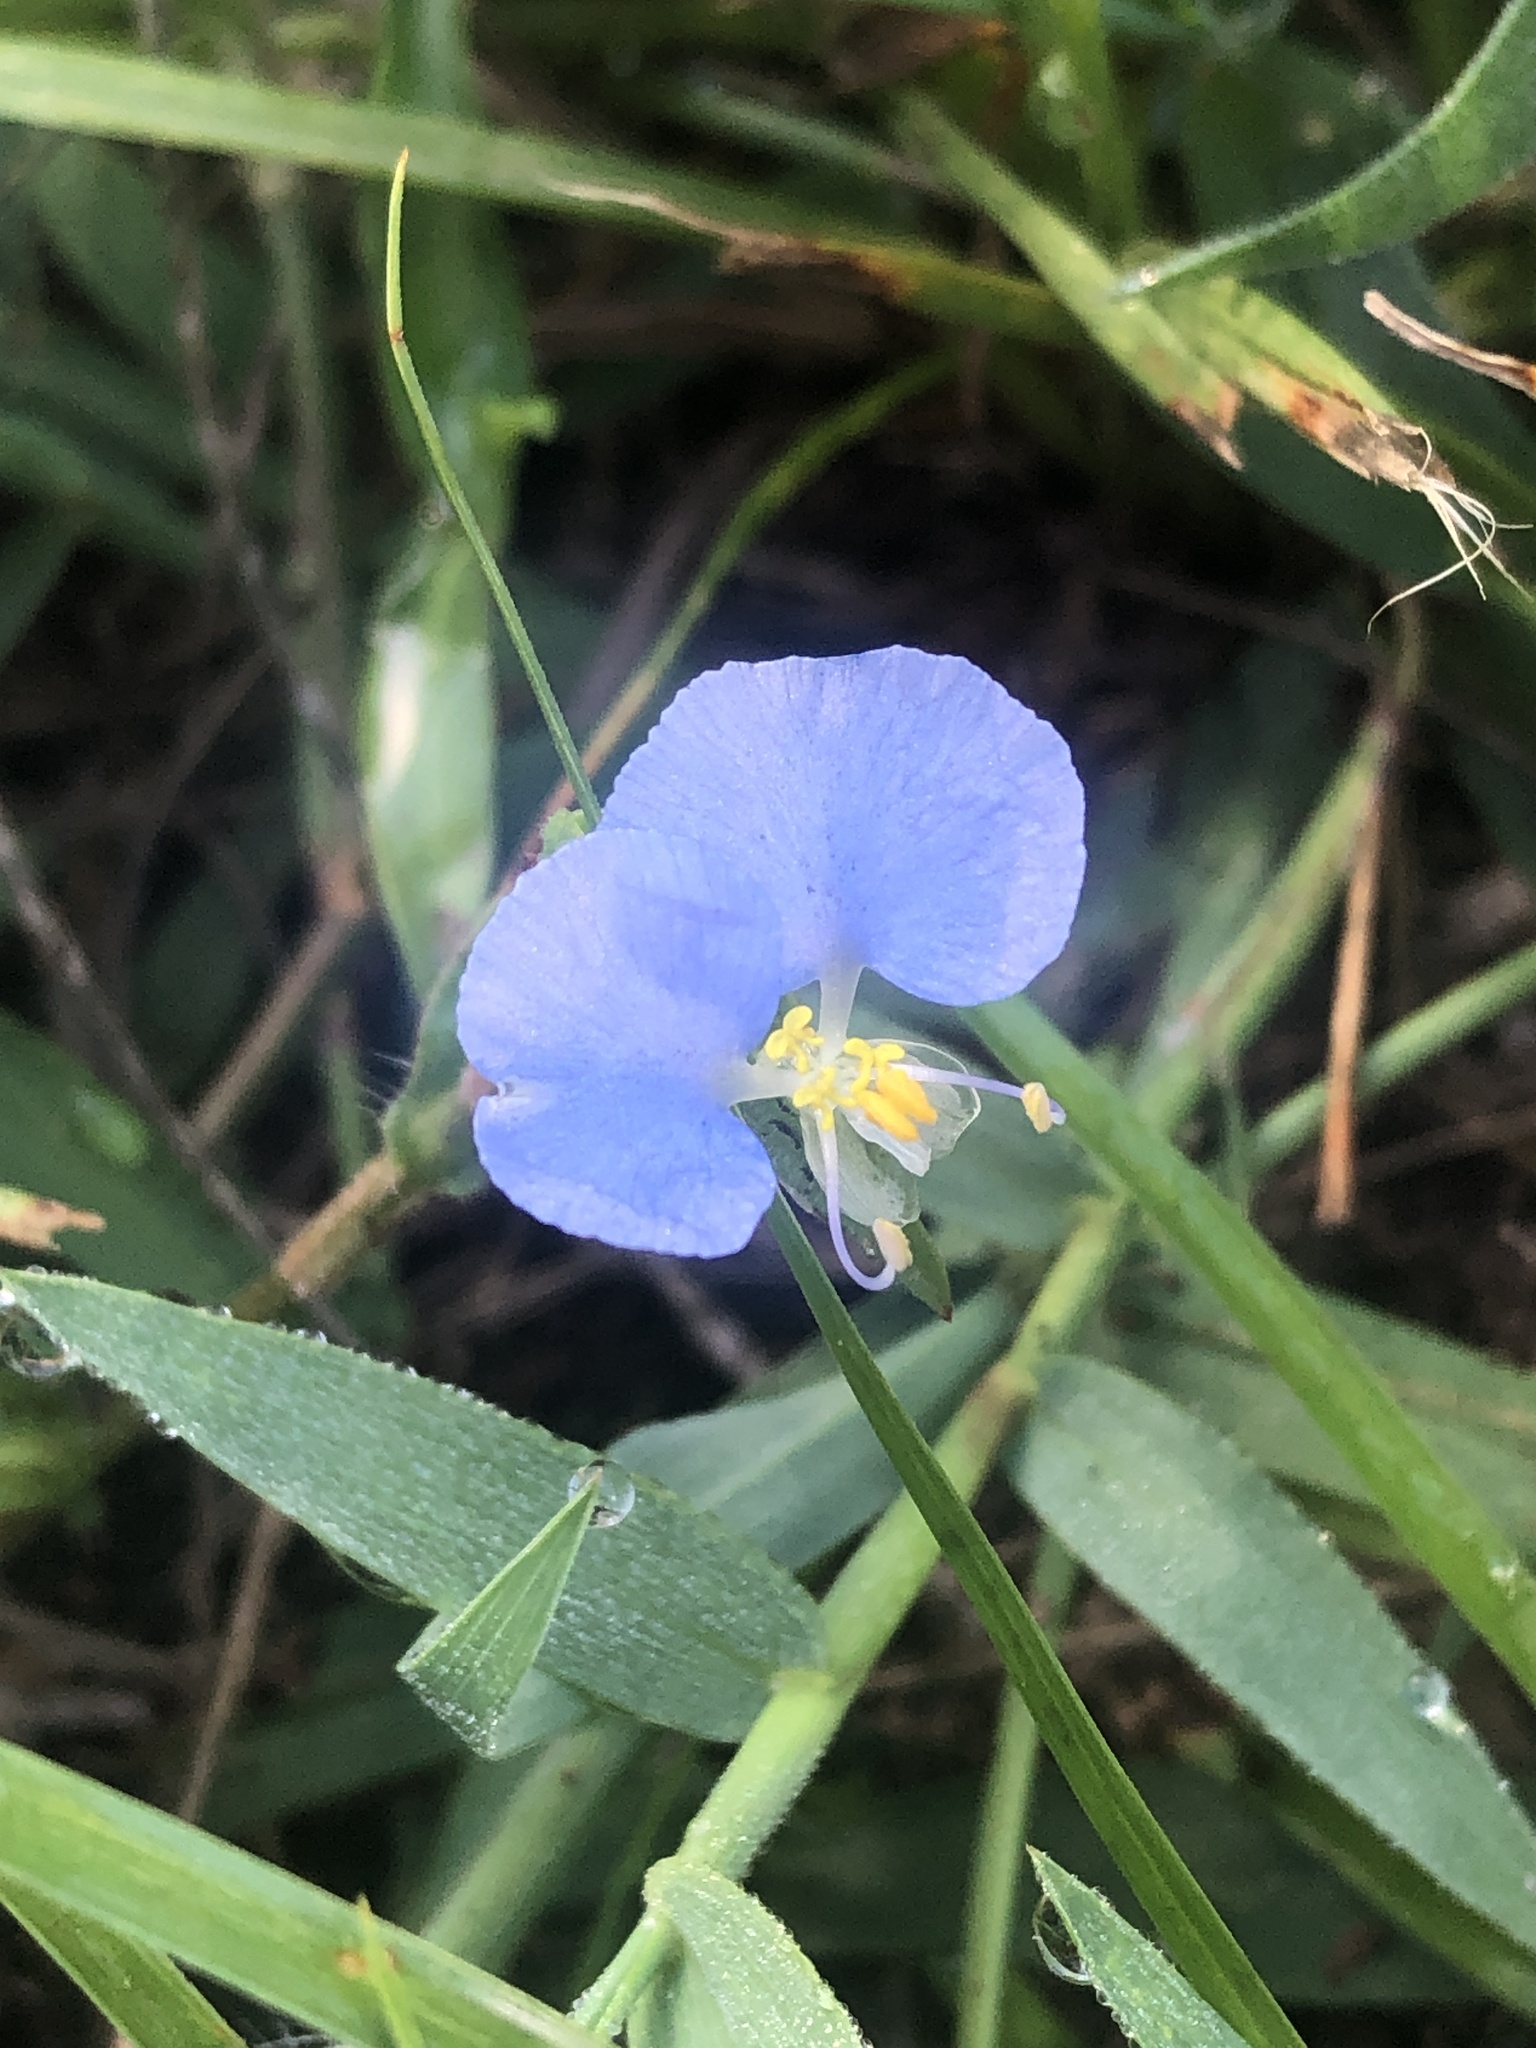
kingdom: Plantae
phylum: Tracheophyta
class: Liliopsida
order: Commelinales
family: Commelinaceae
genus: Commelina
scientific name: Commelina erecta
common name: Blousel blommetjie
